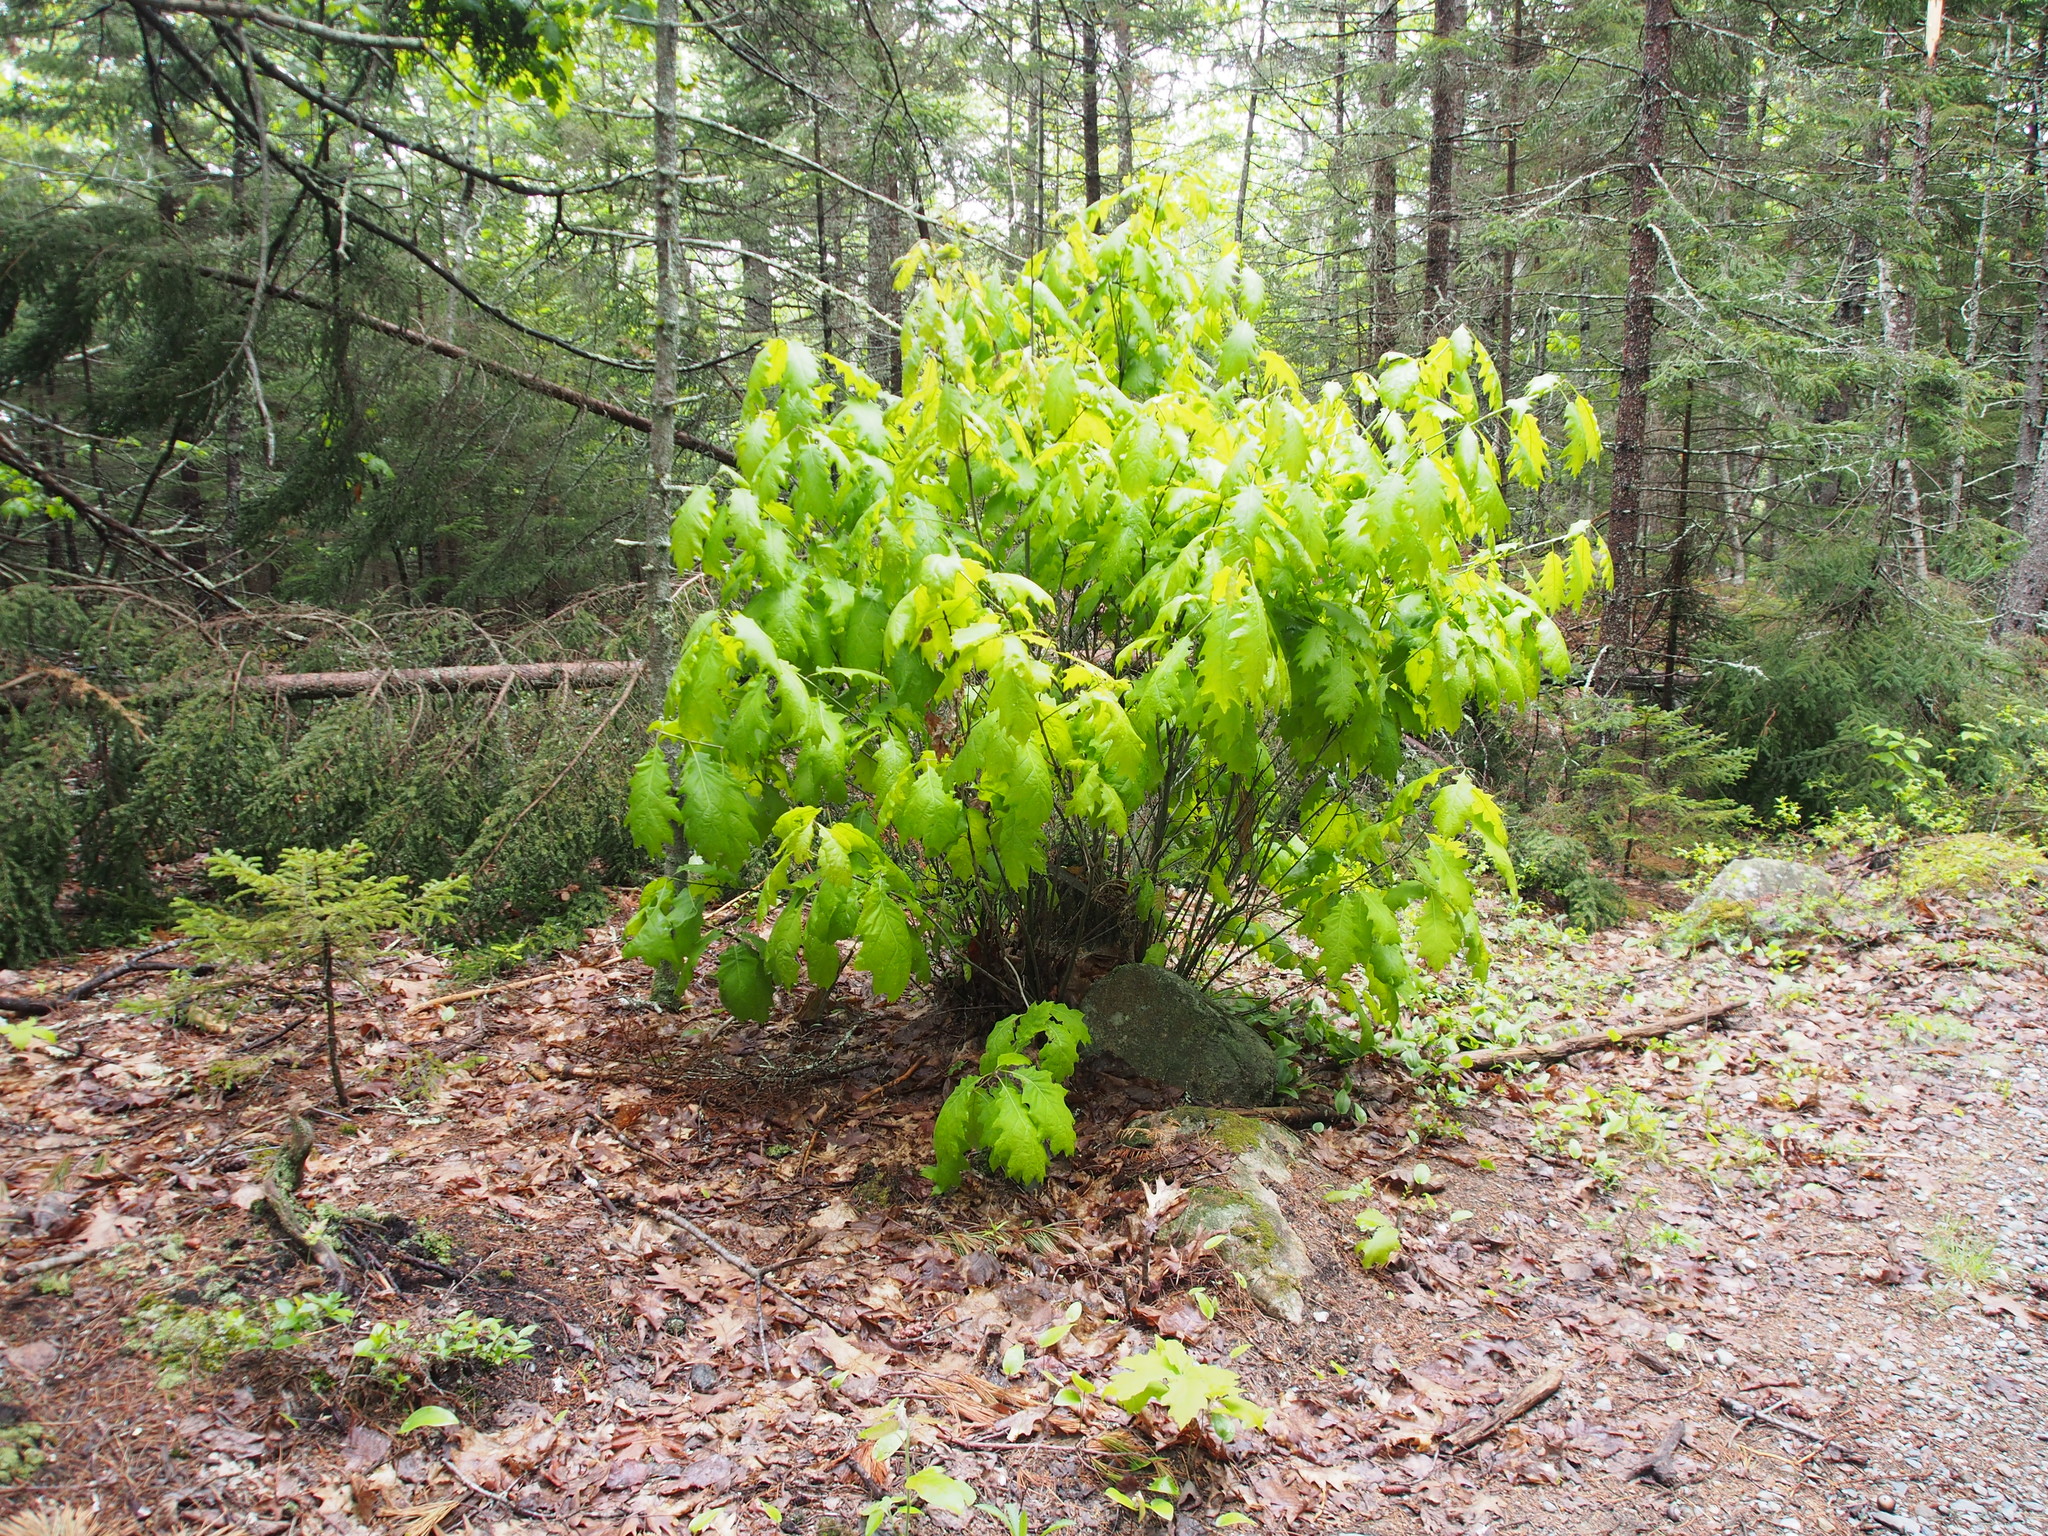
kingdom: Plantae
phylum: Tracheophyta
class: Magnoliopsida
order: Fagales
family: Fagaceae
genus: Quercus
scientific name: Quercus rubra
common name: Red oak
